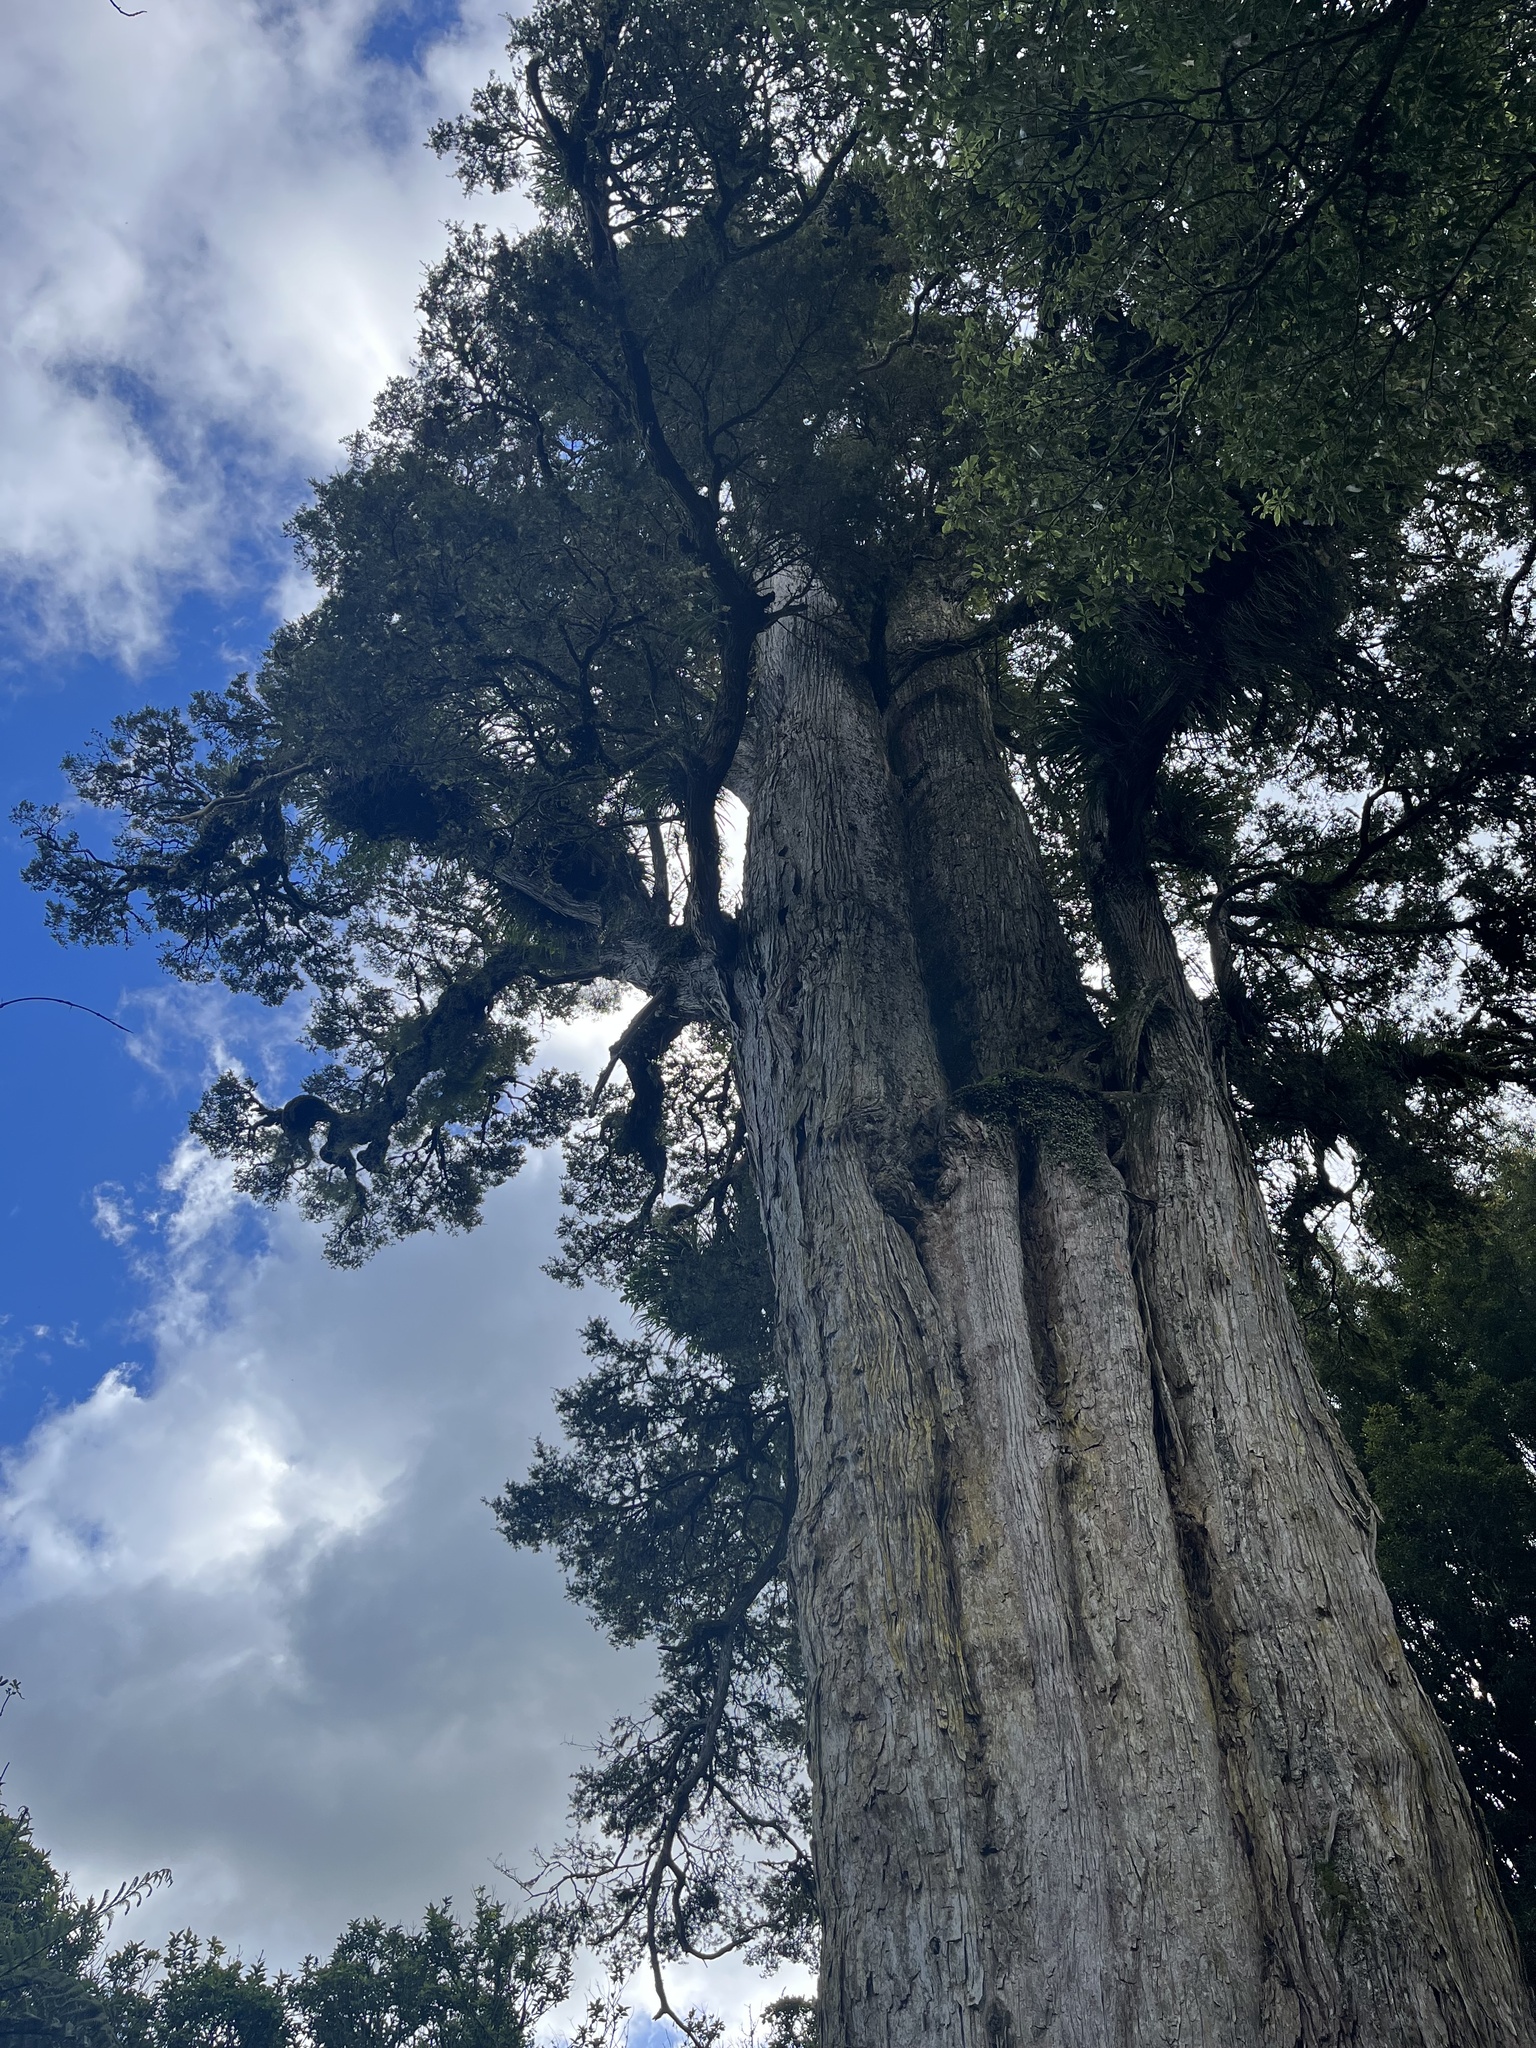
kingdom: Plantae
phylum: Tracheophyta
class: Pinopsida
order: Pinales
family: Podocarpaceae
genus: Podocarpus
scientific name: Podocarpus totara
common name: Totara
